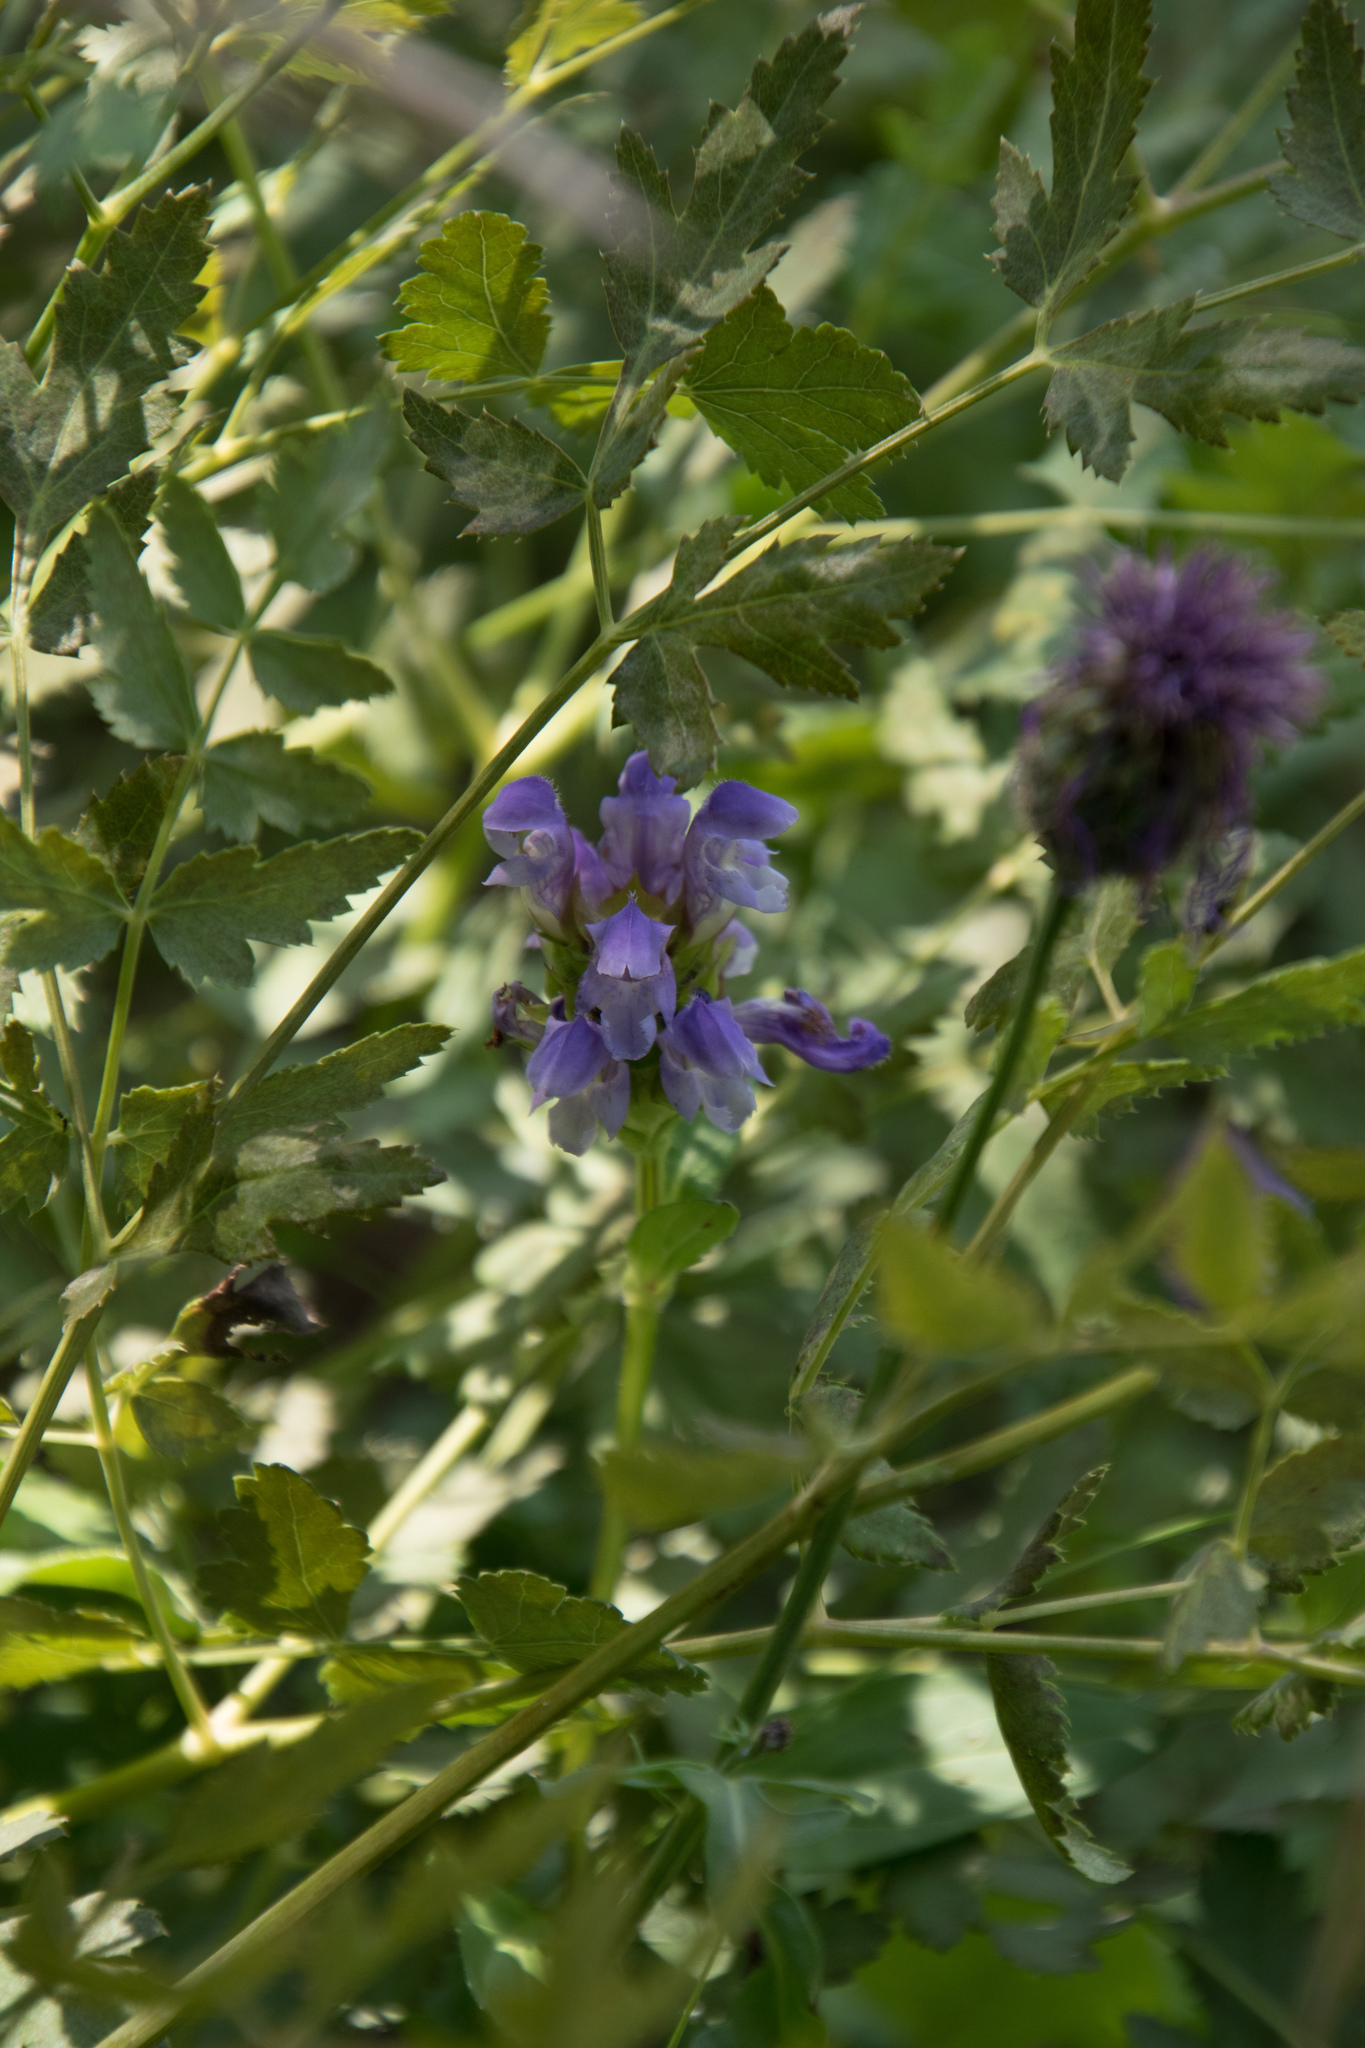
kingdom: Plantae
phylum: Tracheophyta
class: Magnoliopsida
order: Lamiales
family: Lamiaceae
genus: Prunella
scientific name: Prunella grandiflora
